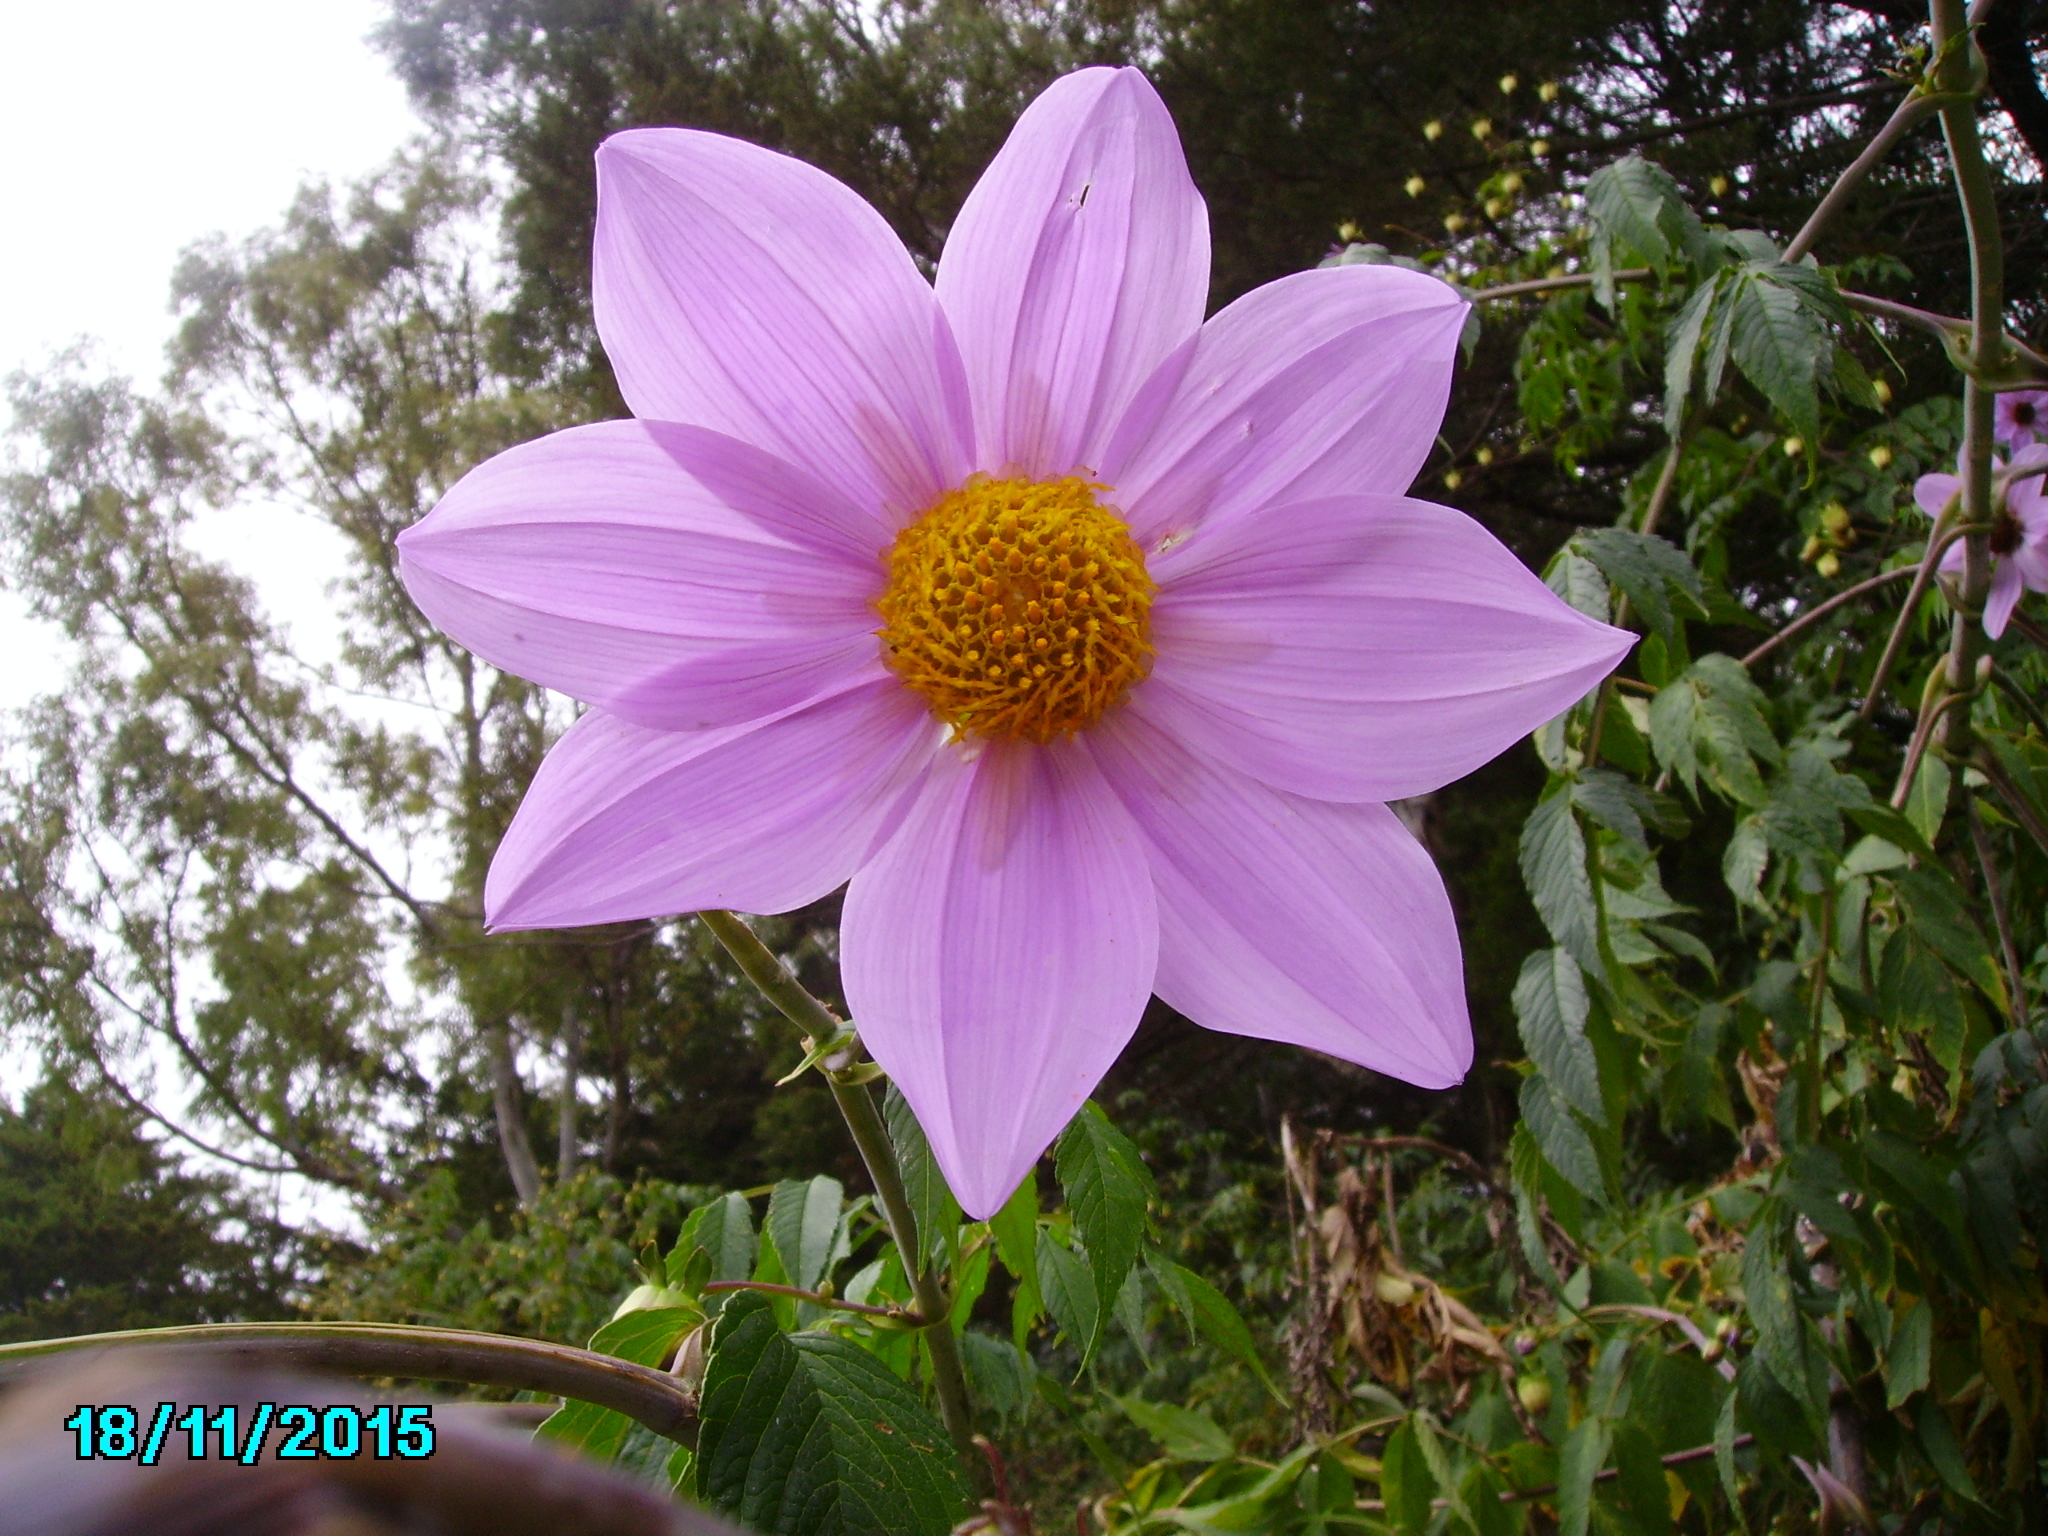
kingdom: Plantae
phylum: Tracheophyta
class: Magnoliopsida
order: Asterales
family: Asteraceae
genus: Dahlia
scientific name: Dahlia imperialis
